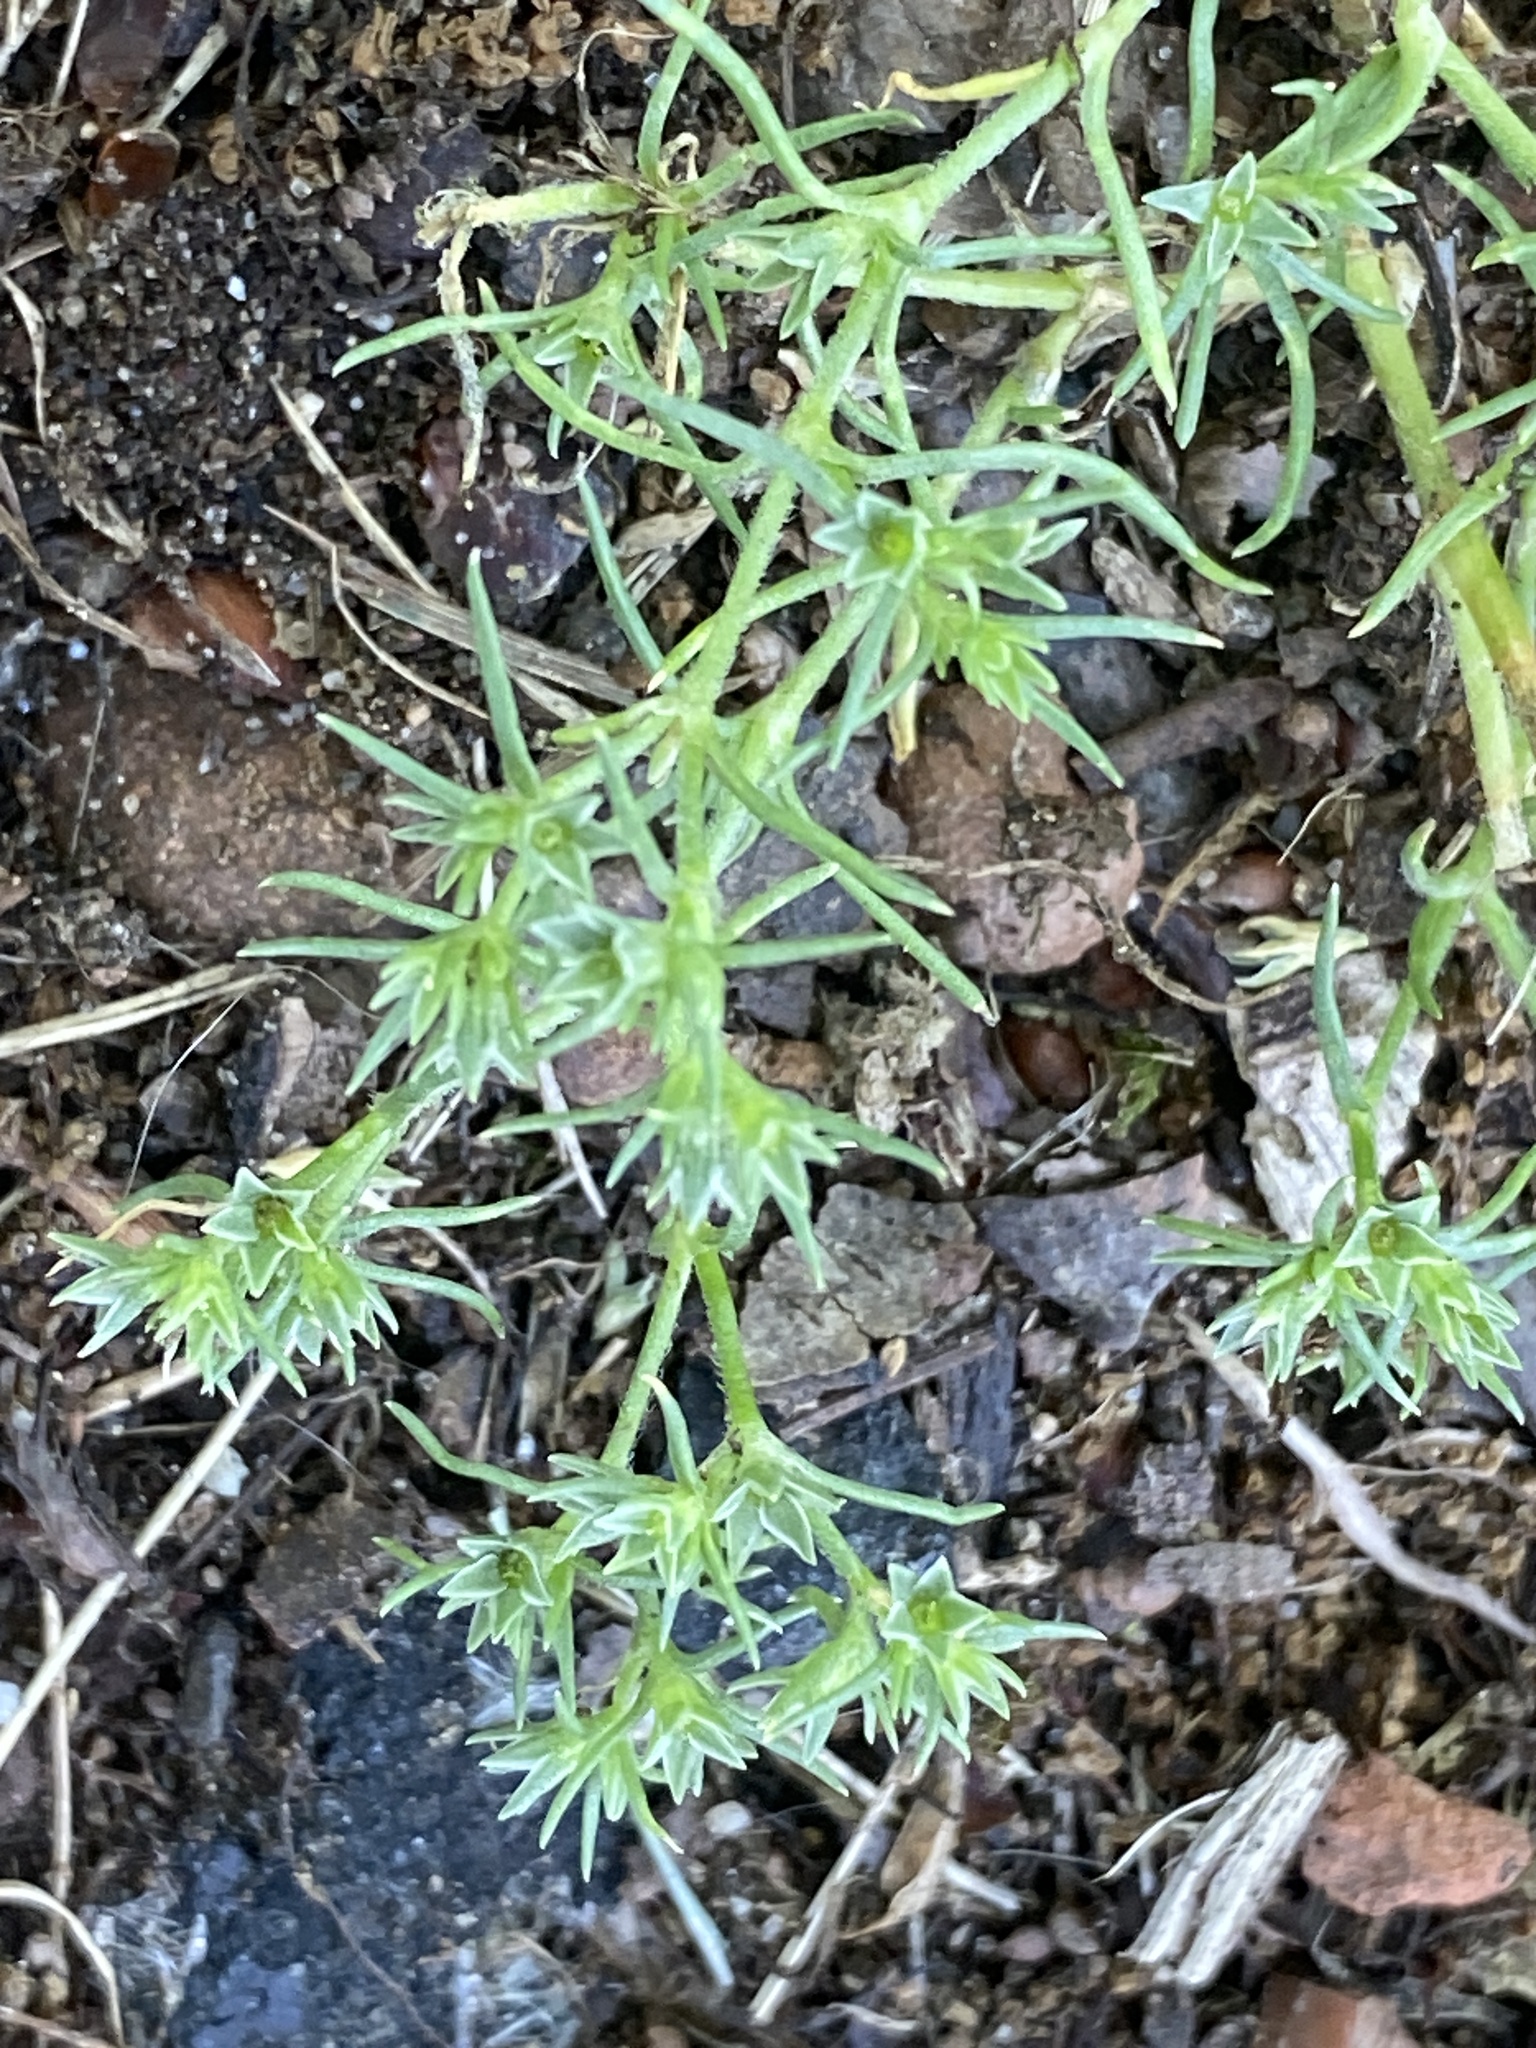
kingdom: Plantae
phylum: Tracheophyta
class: Magnoliopsida
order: Caryophyllales
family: Caryophyllaceae
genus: Scleranthus
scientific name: Scleranthus annuus
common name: Annual knawel
